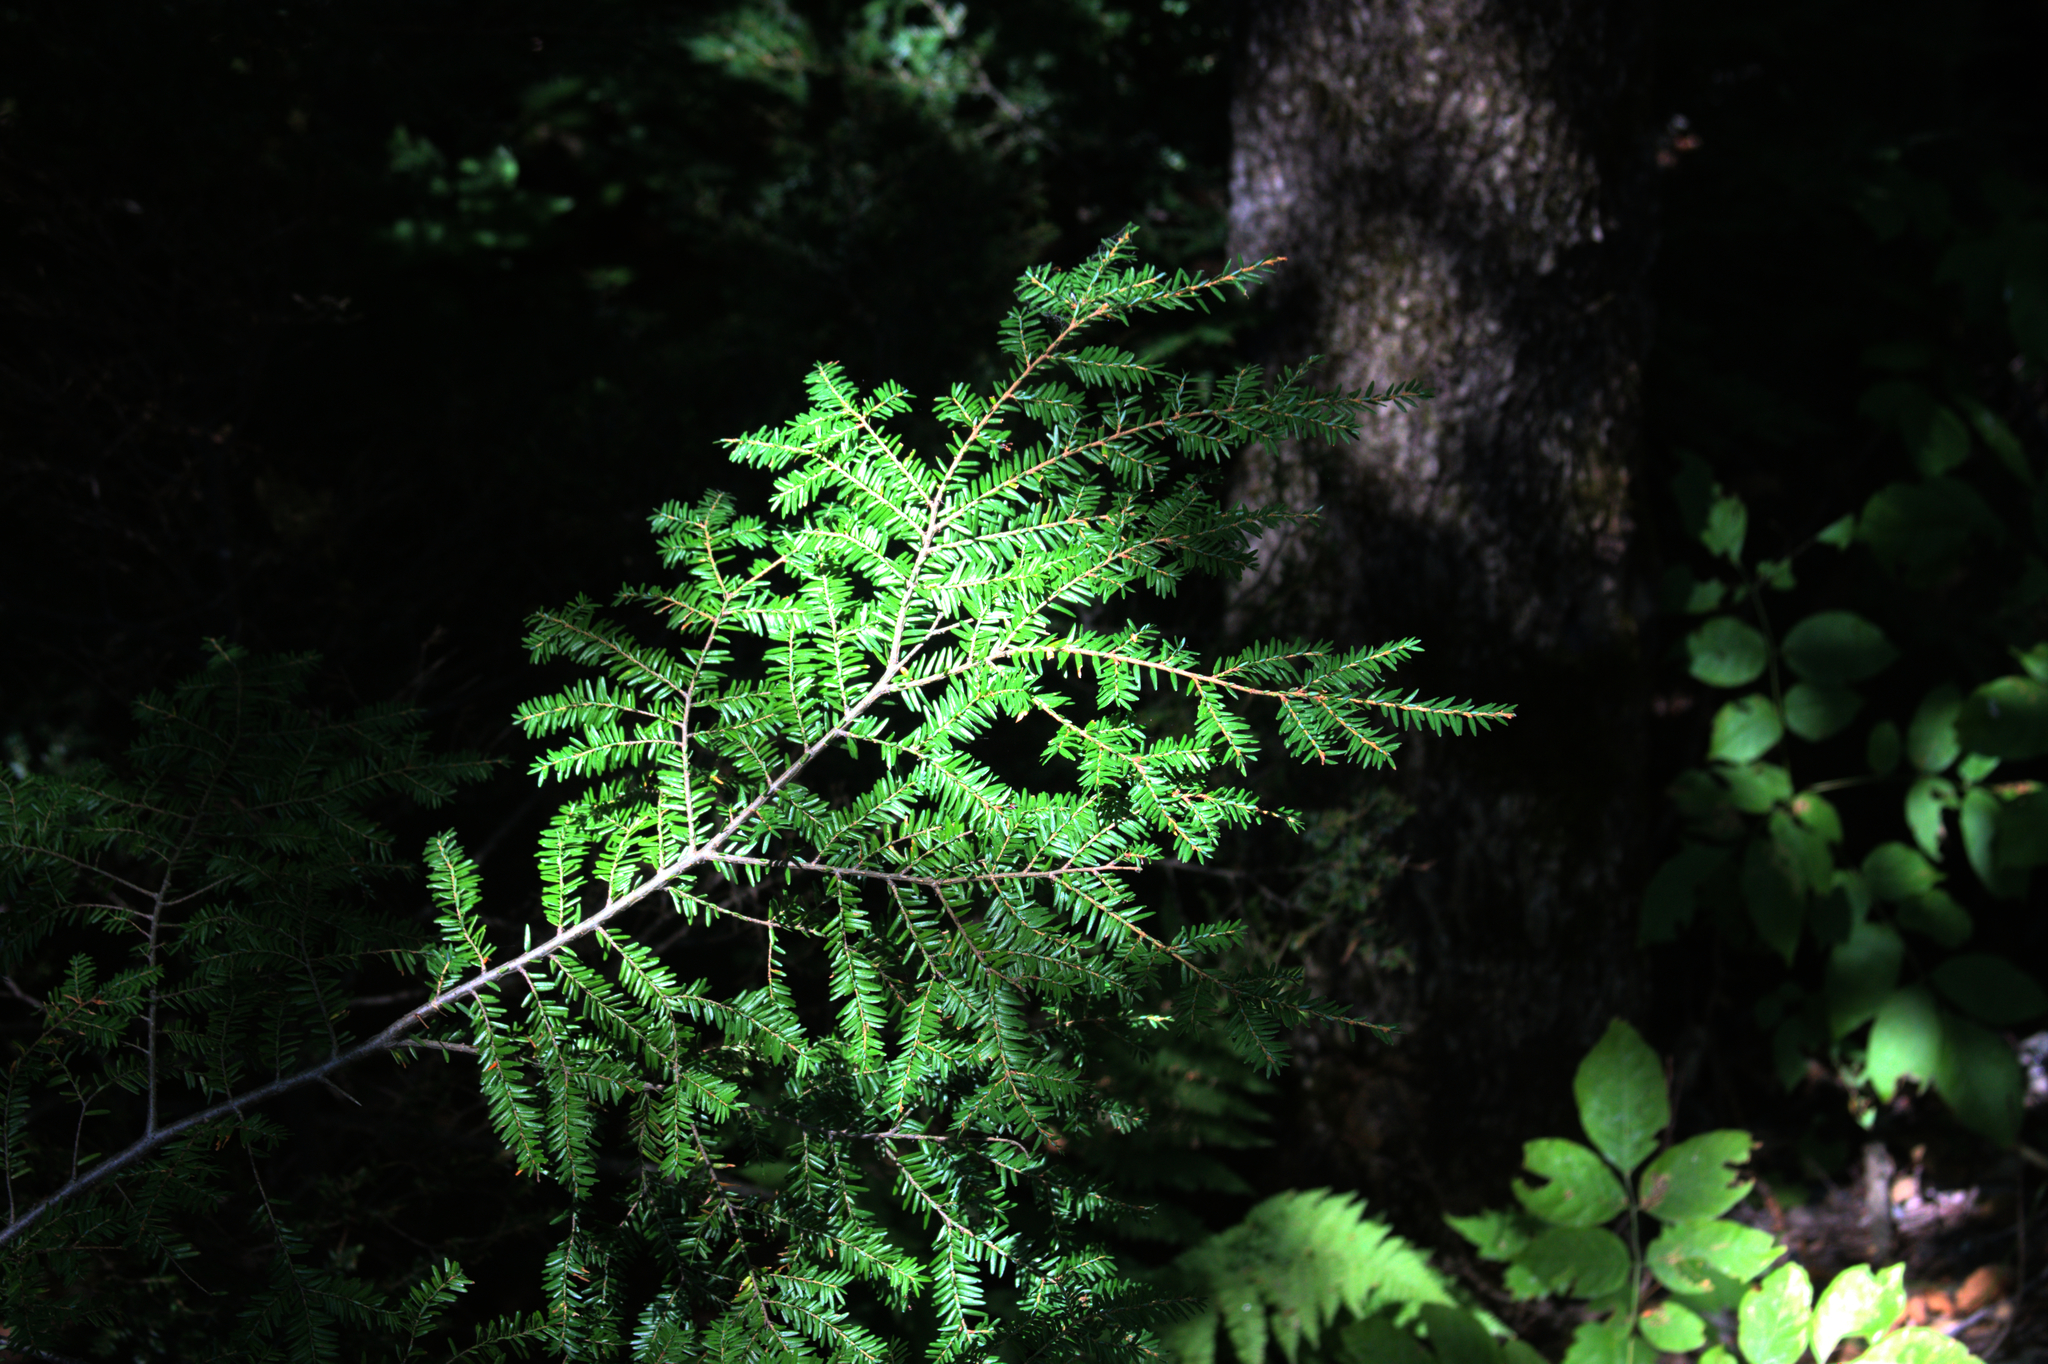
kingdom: Plantae
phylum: Tracheophyta
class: Pinopsida
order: Pinales
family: Pinaceae
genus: Tsuga
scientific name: Tsuga canadensis
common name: Eastern hemlock
